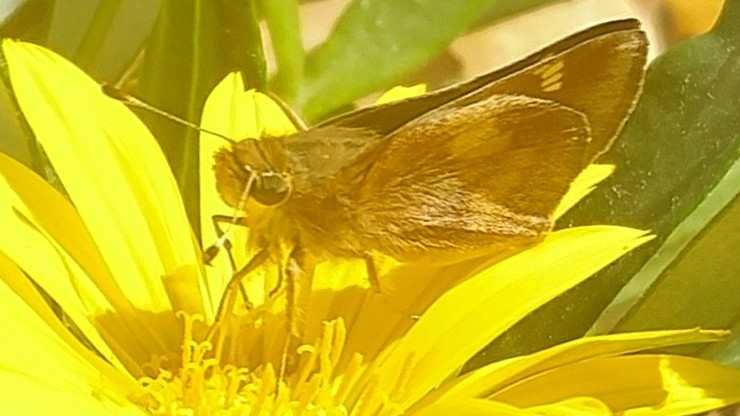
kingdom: Animalia
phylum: Arthropoda
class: Insecta
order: Lepidoptera
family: Hesperiidae
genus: Lon
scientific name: Lon melane
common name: Umber skipper
